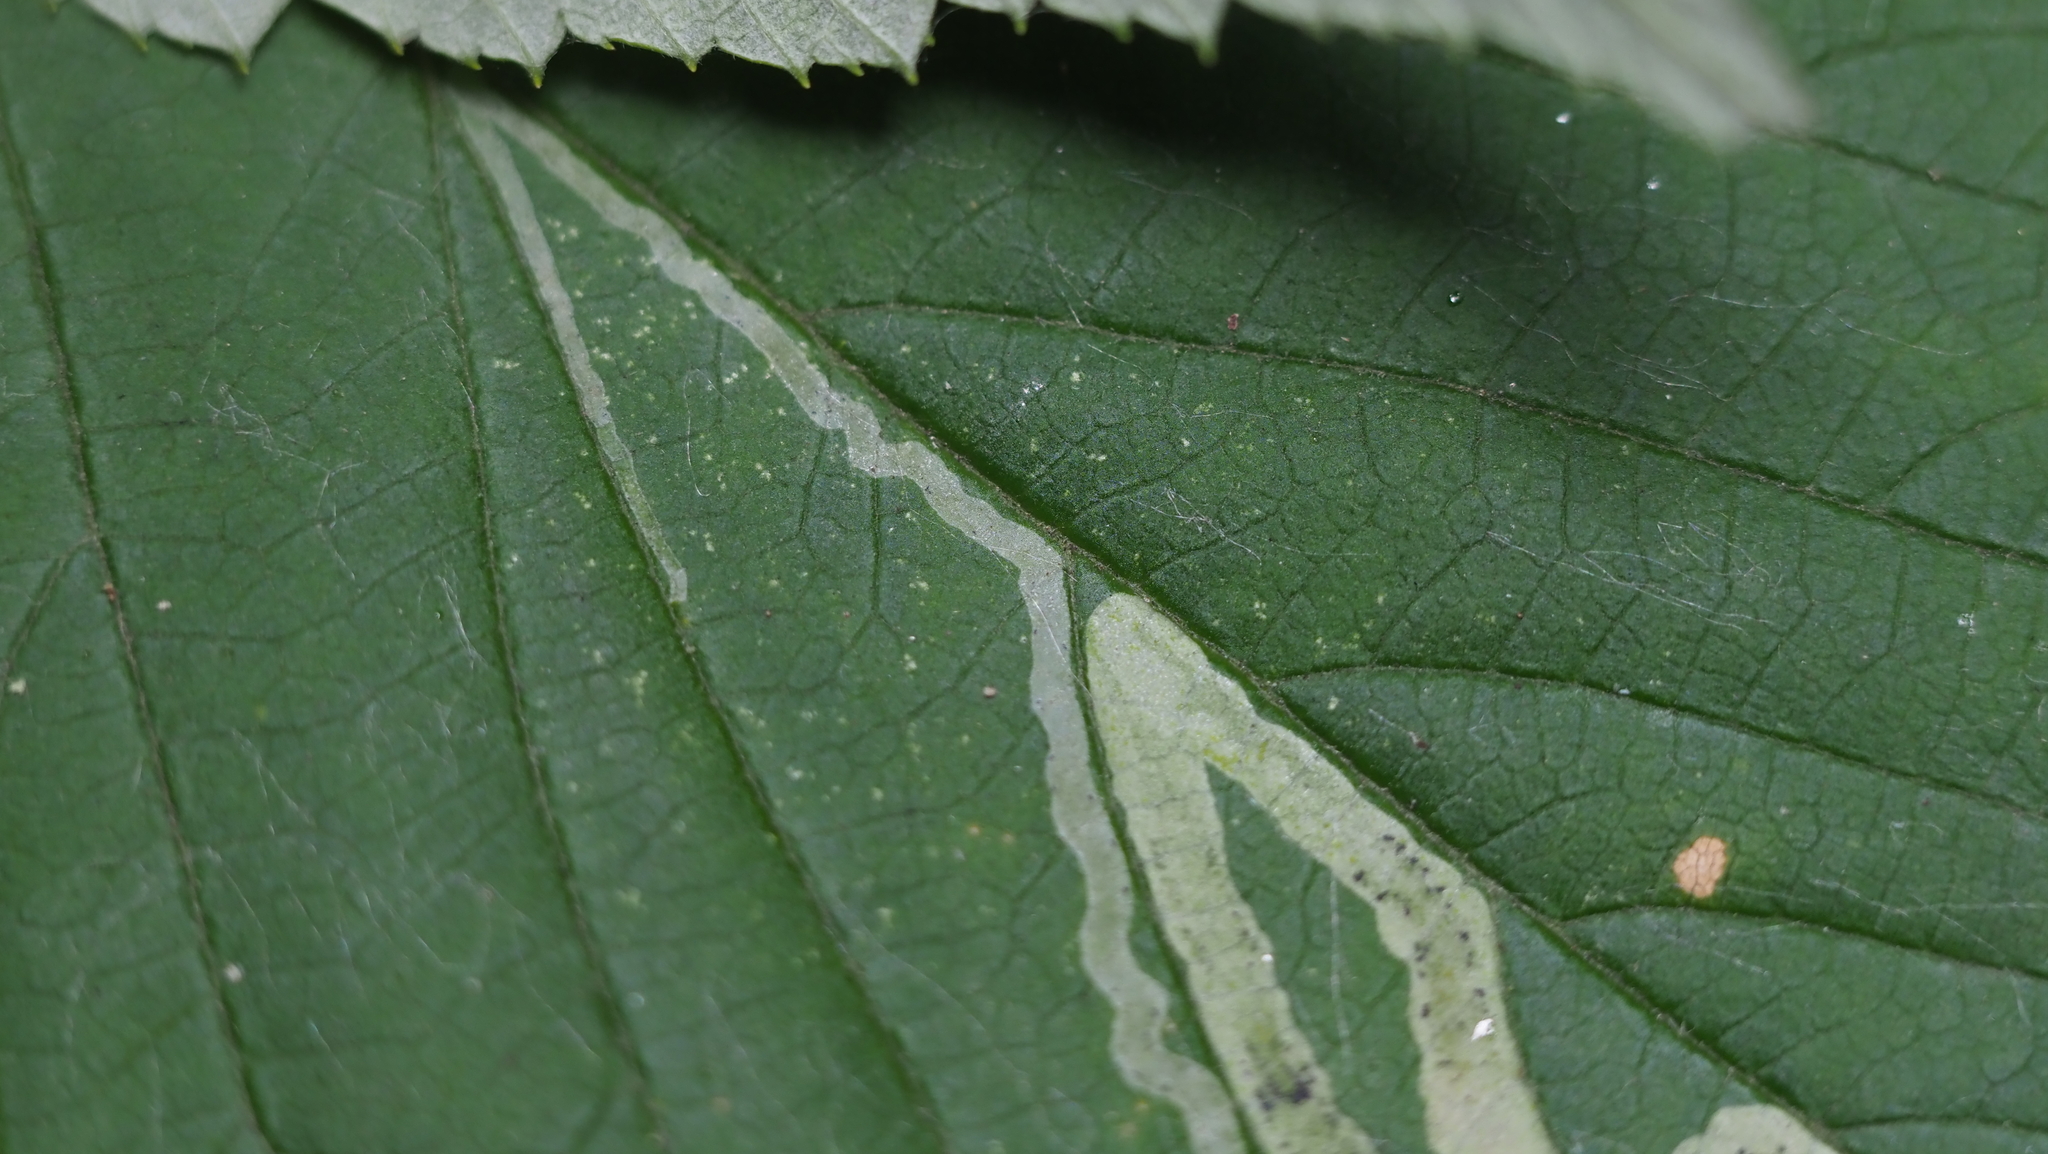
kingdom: Animalia
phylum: Arthropoda
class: Insecta
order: Diptera
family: Agromyzidae
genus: Agromyza
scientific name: Agromyza vockerothi
